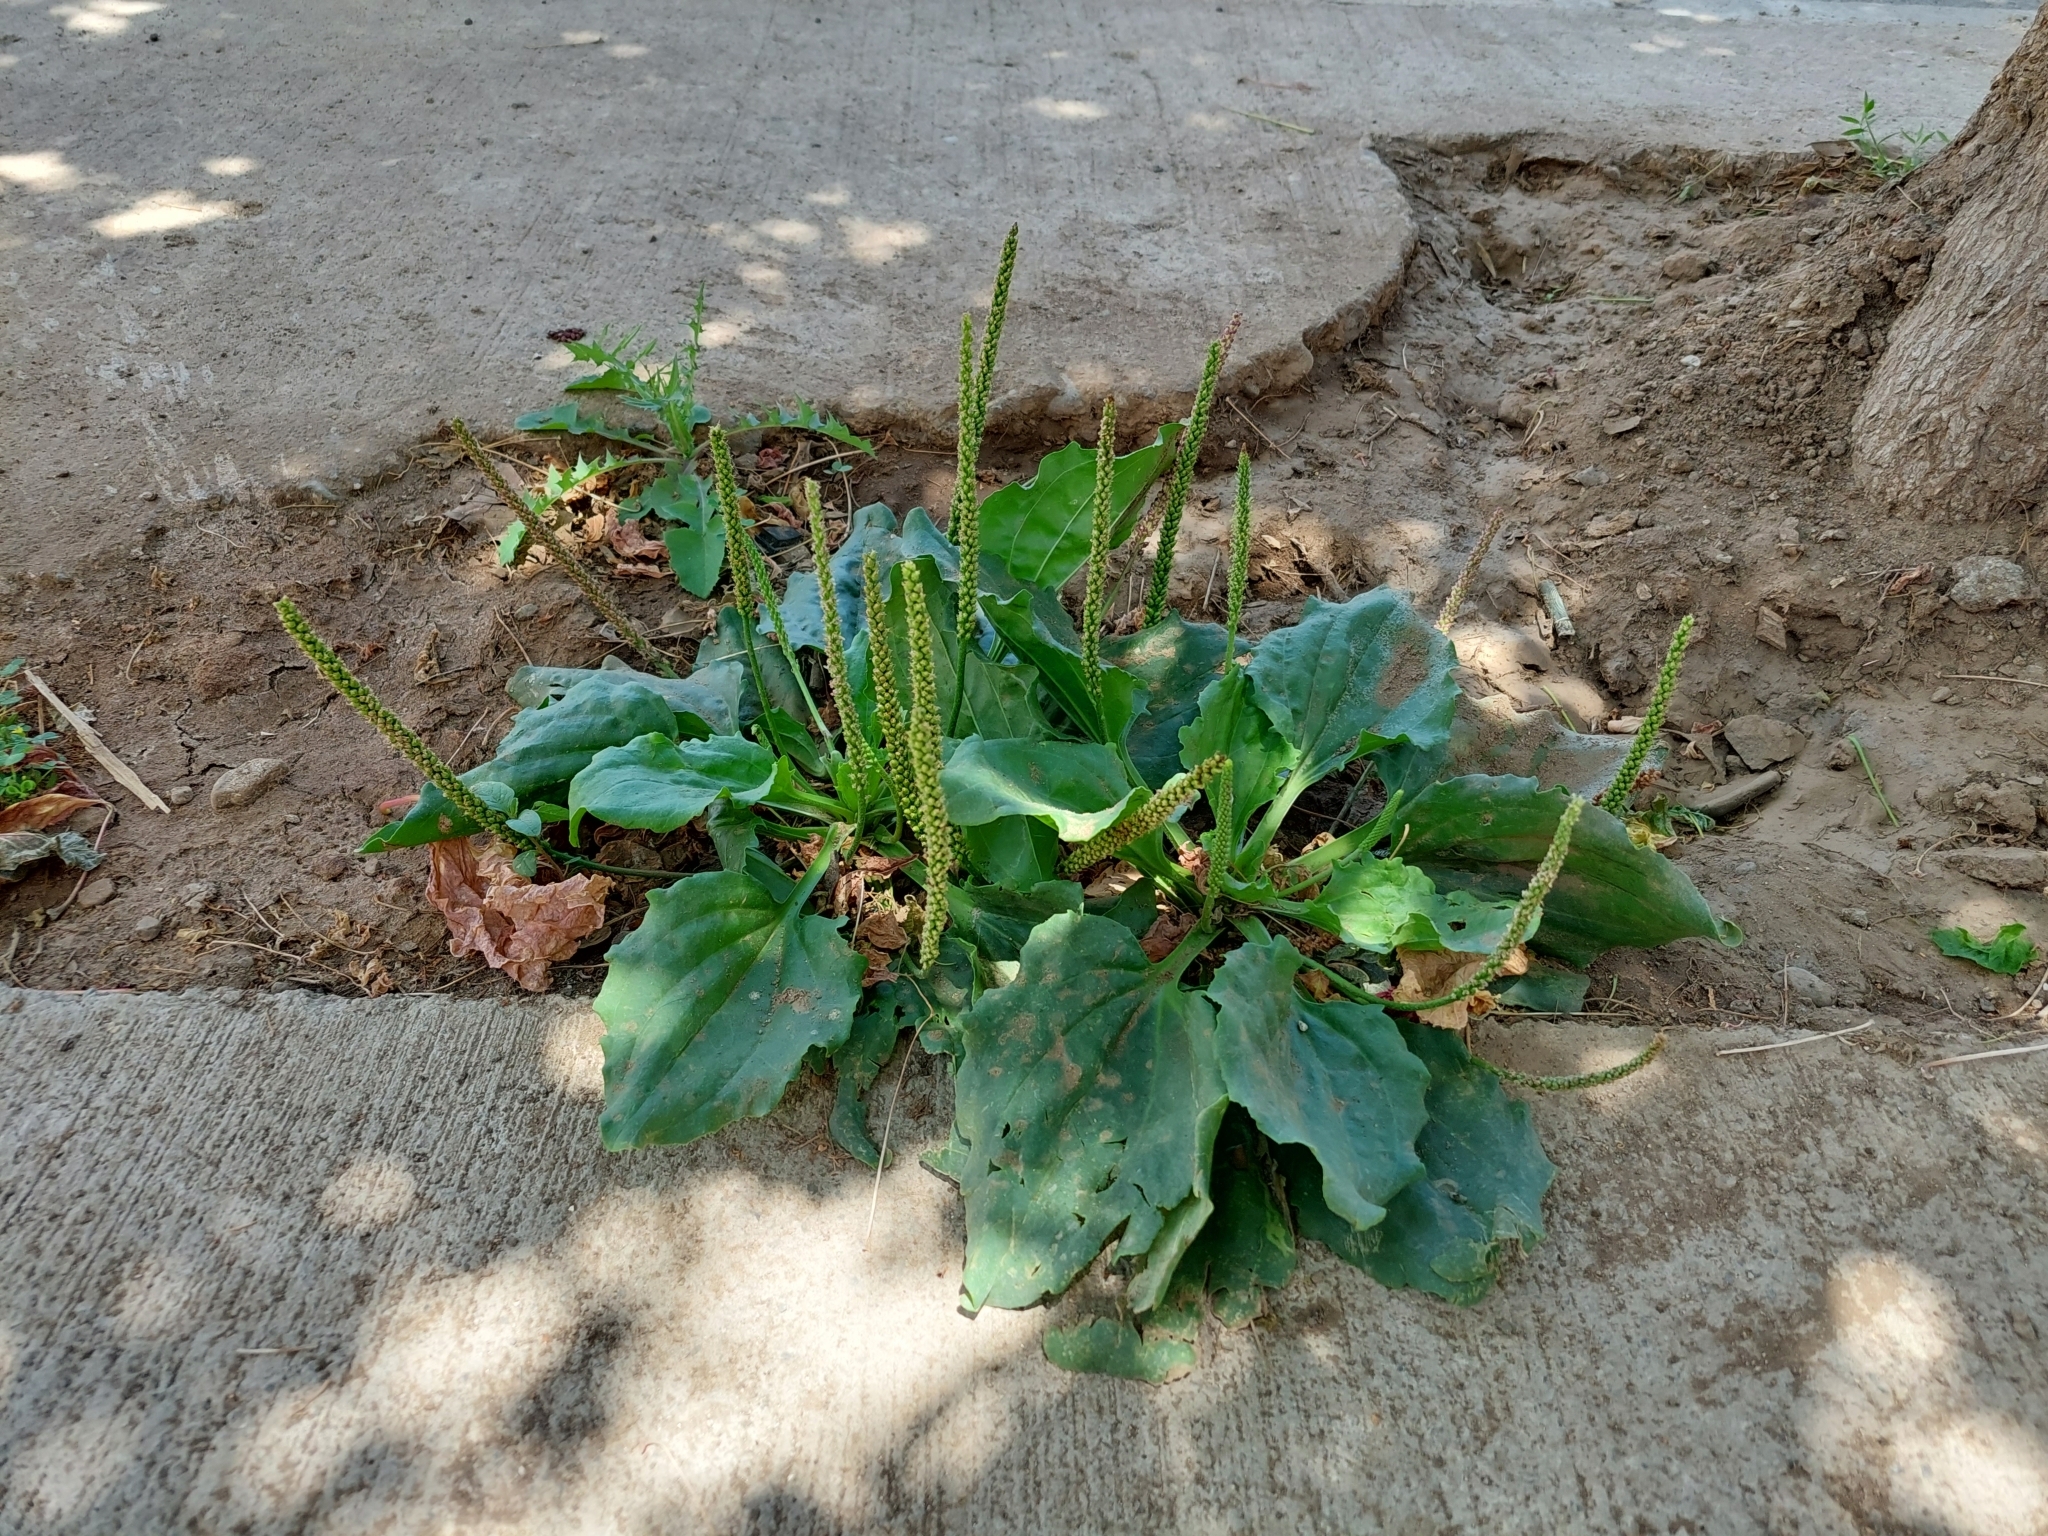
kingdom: Plantae
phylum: Tracheophyta
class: Magnoliopsida
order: Lamiales
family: Plantaginaceae
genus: Plantago
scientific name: Plantago major
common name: Common plantain
